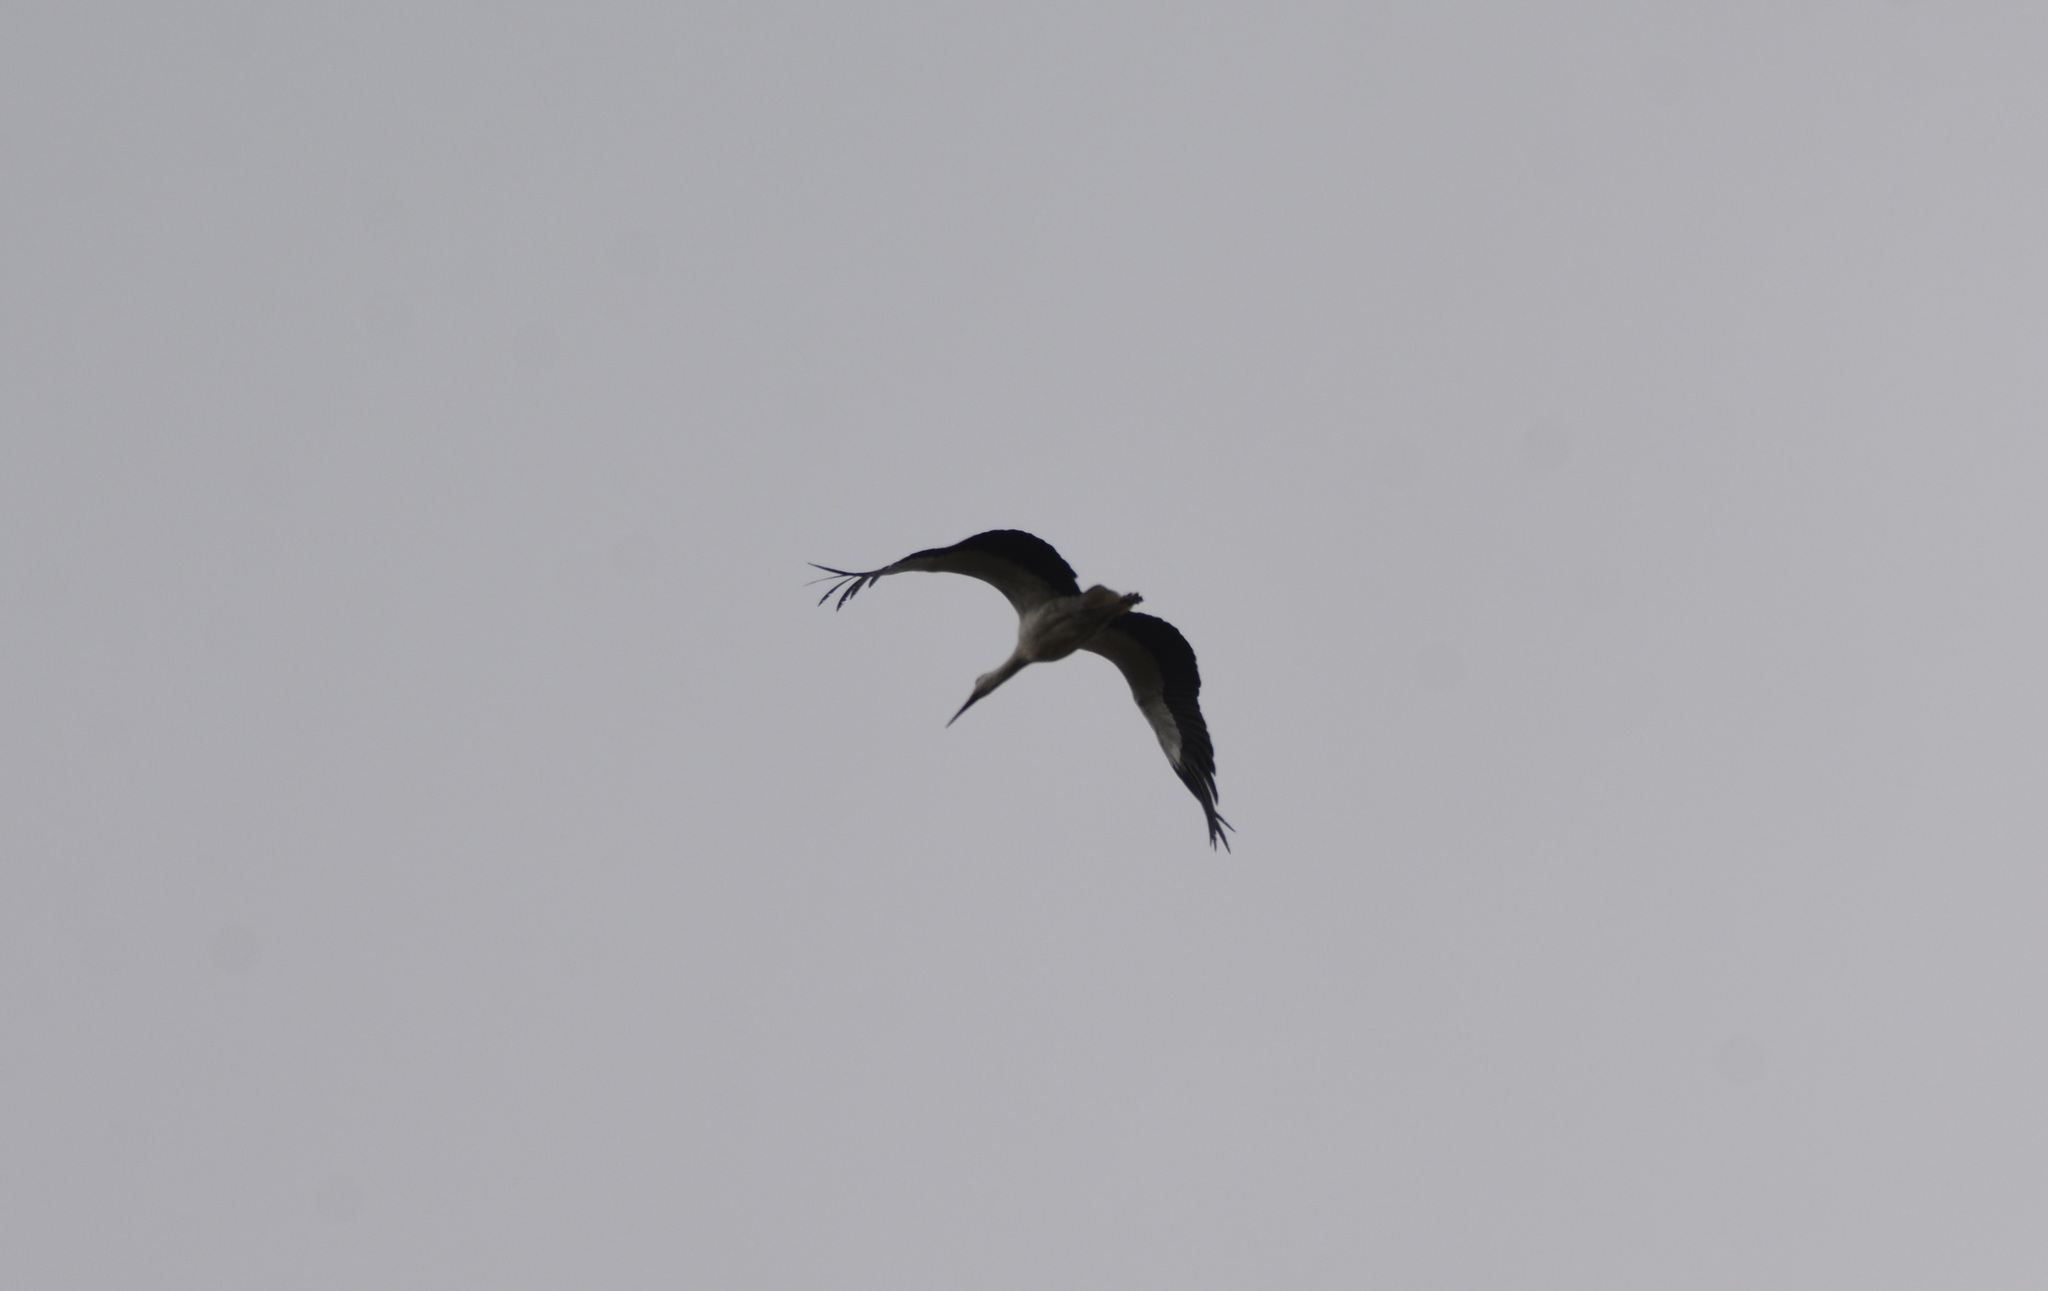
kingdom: Animalia
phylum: Chordata
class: Aves
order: Ciconiiformes
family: Ciconiidae
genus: Ciconia
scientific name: Ciconia ciconia
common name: White stork
